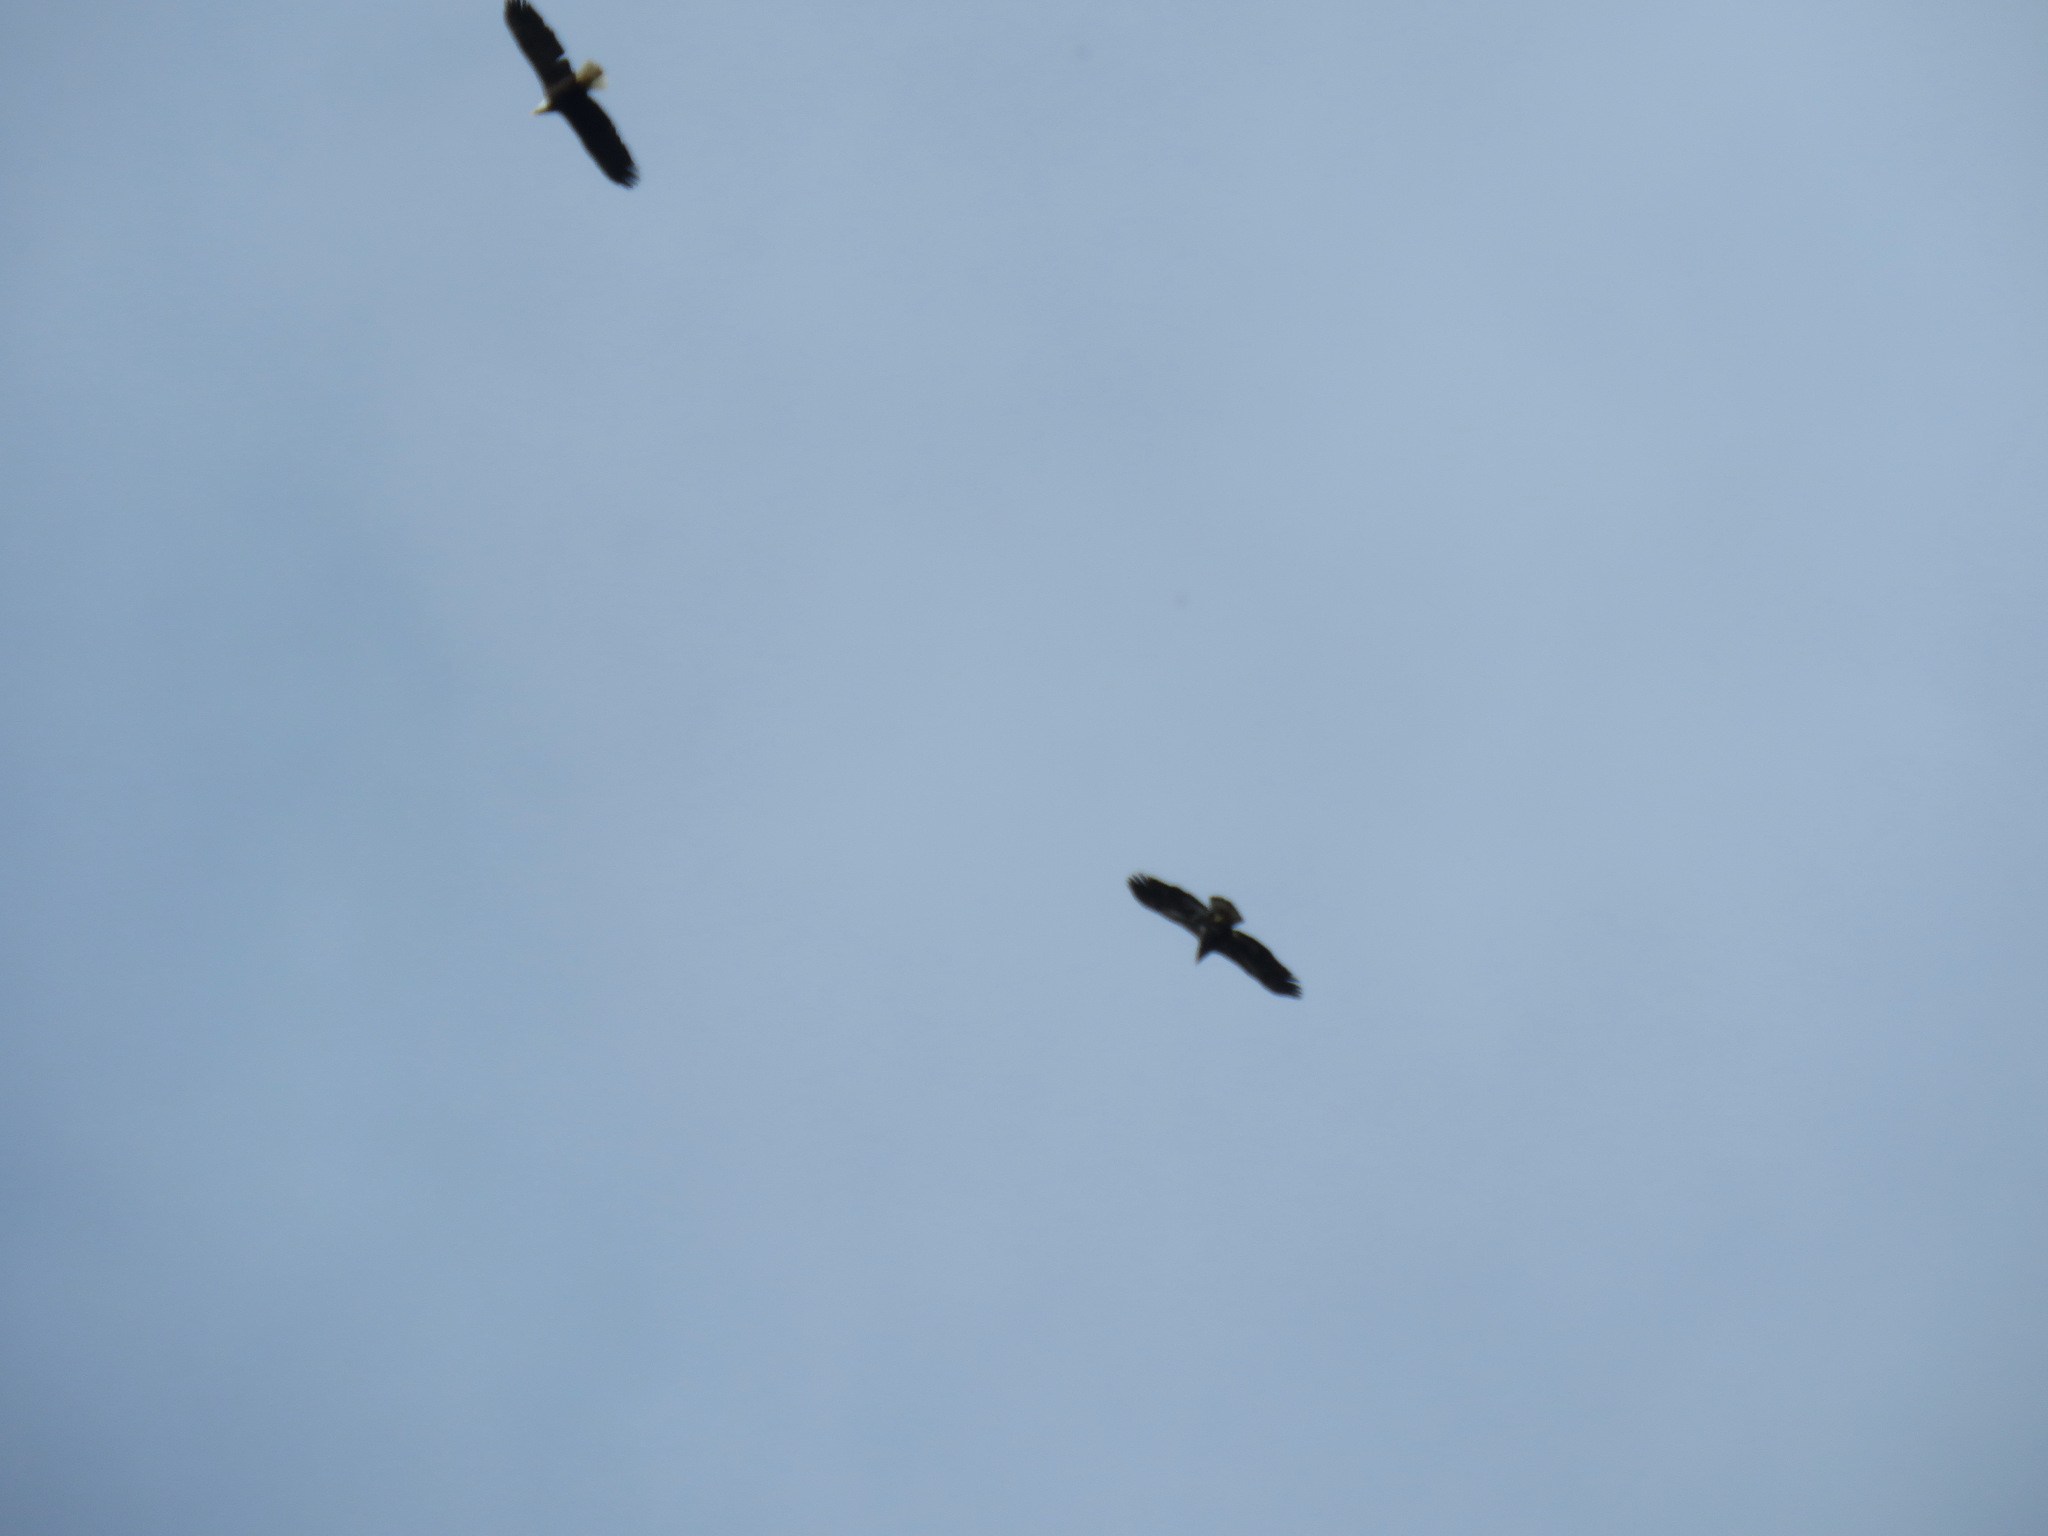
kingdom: Animalia
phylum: Chordata
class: Aves
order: Accipitriformes
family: Accipitridae
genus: Haliaeetus
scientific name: Haliaeetus leucocephalus
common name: Bald eagle
